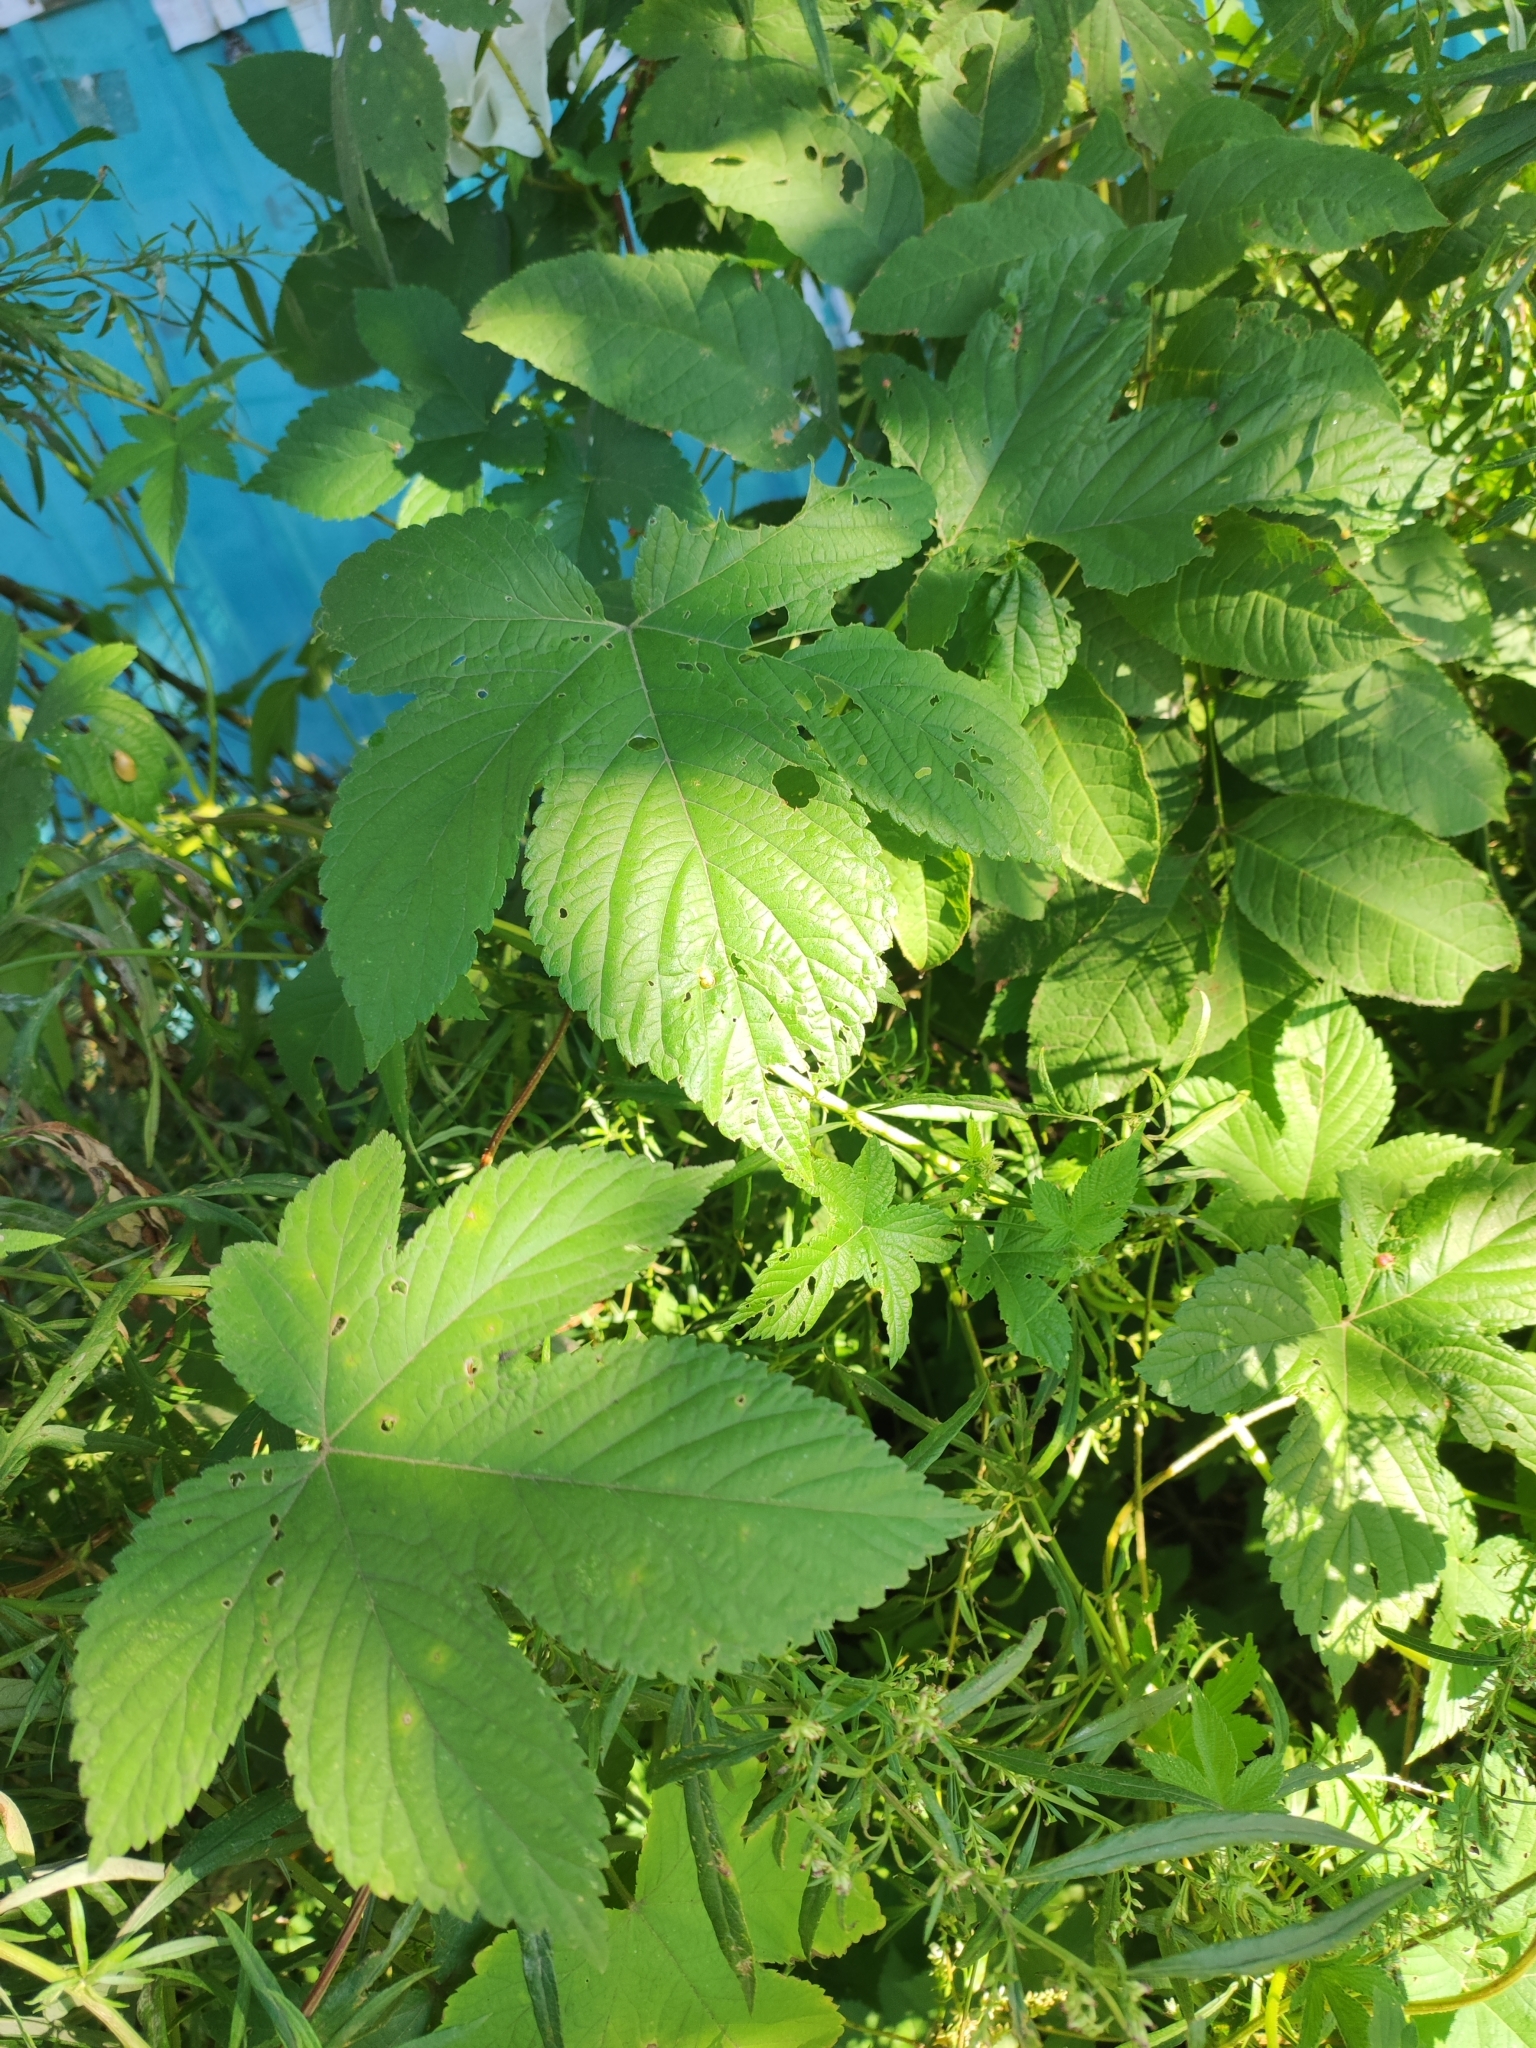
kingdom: Plantae
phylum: Tracheophyta
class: Magnoliopsida
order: Rosales
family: Cannabaceae
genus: Humulus
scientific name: Humulus scandens
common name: Japanese hop
